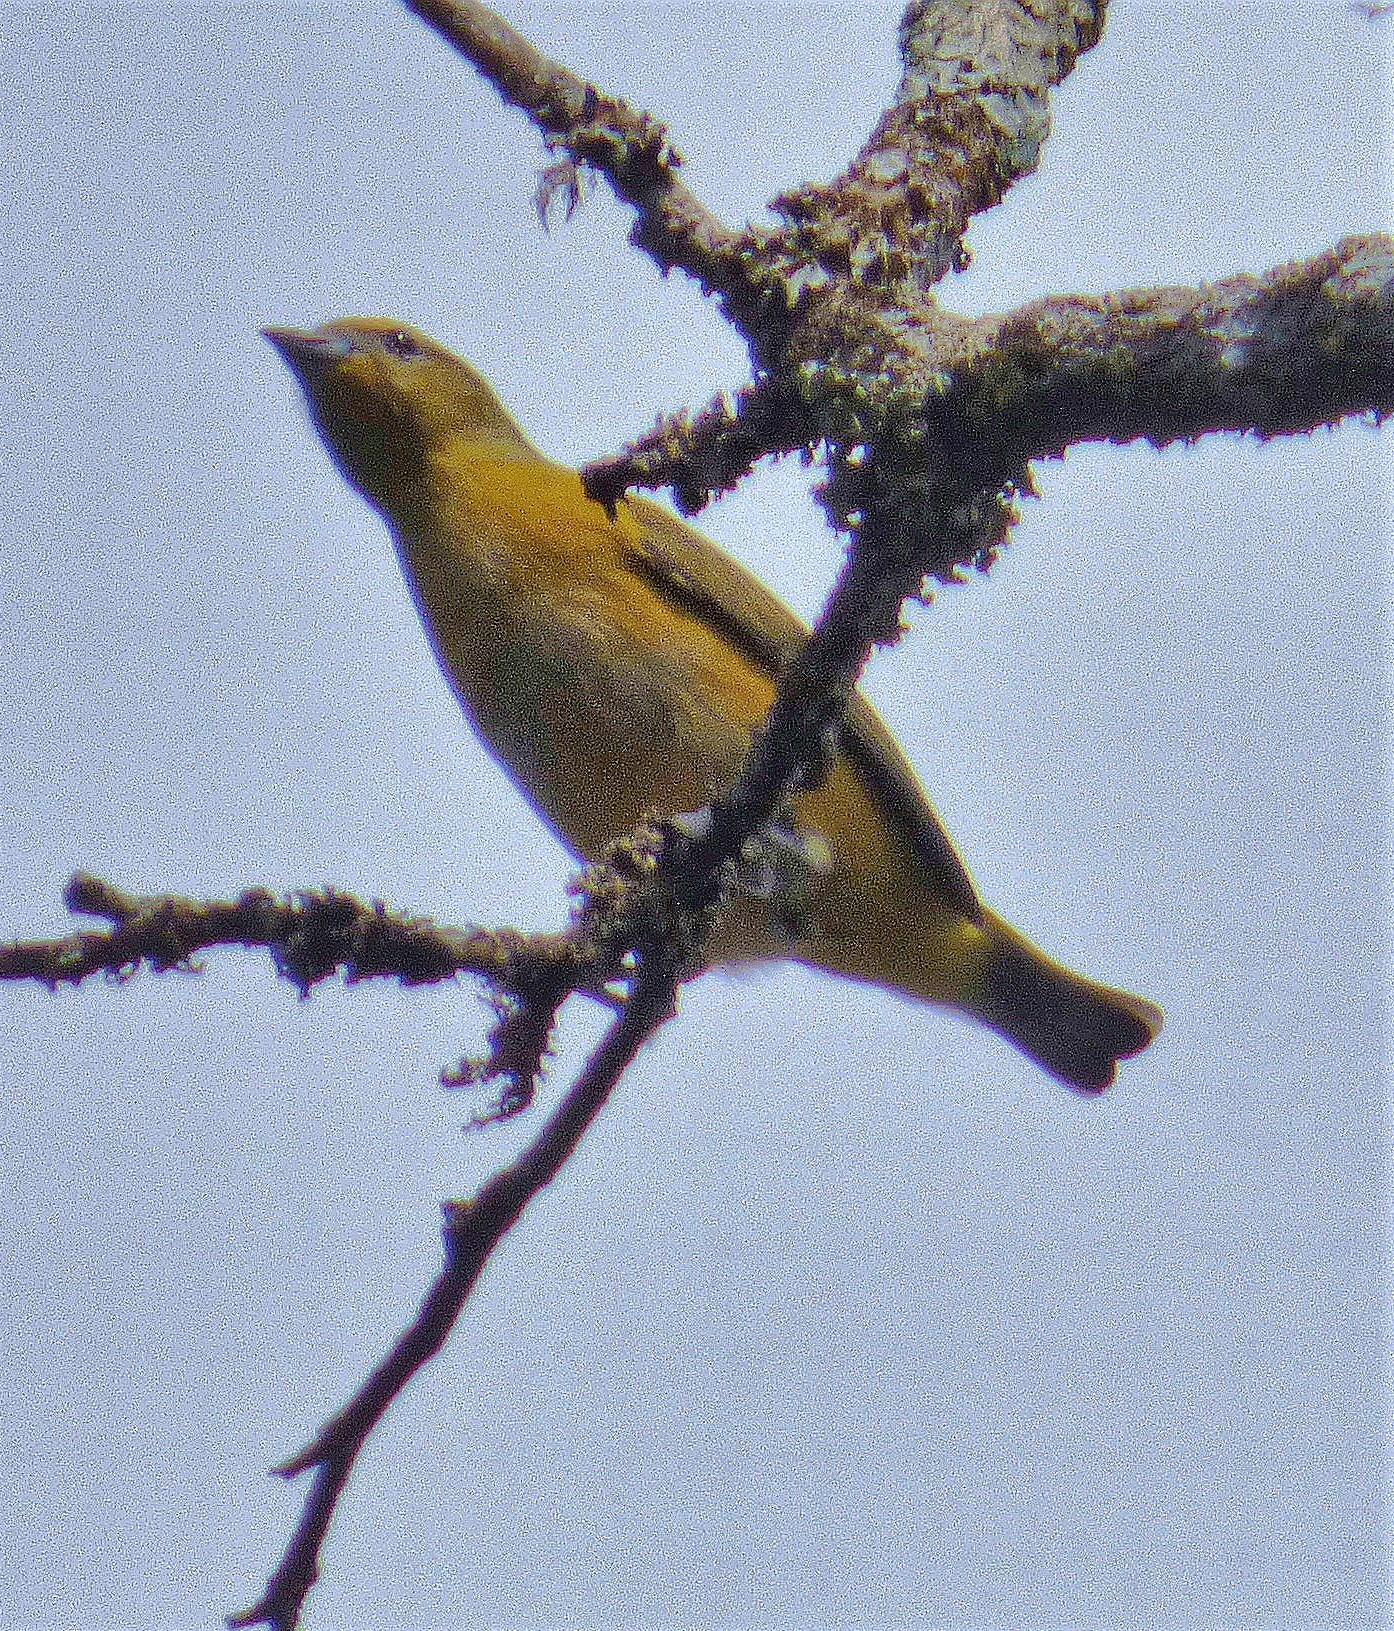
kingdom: Animalia
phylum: Chordata
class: Aves
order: Passeriformes
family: Fringillidae
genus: Euphonia
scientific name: Euphonia chlorotica
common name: Purple-throated euphonia
